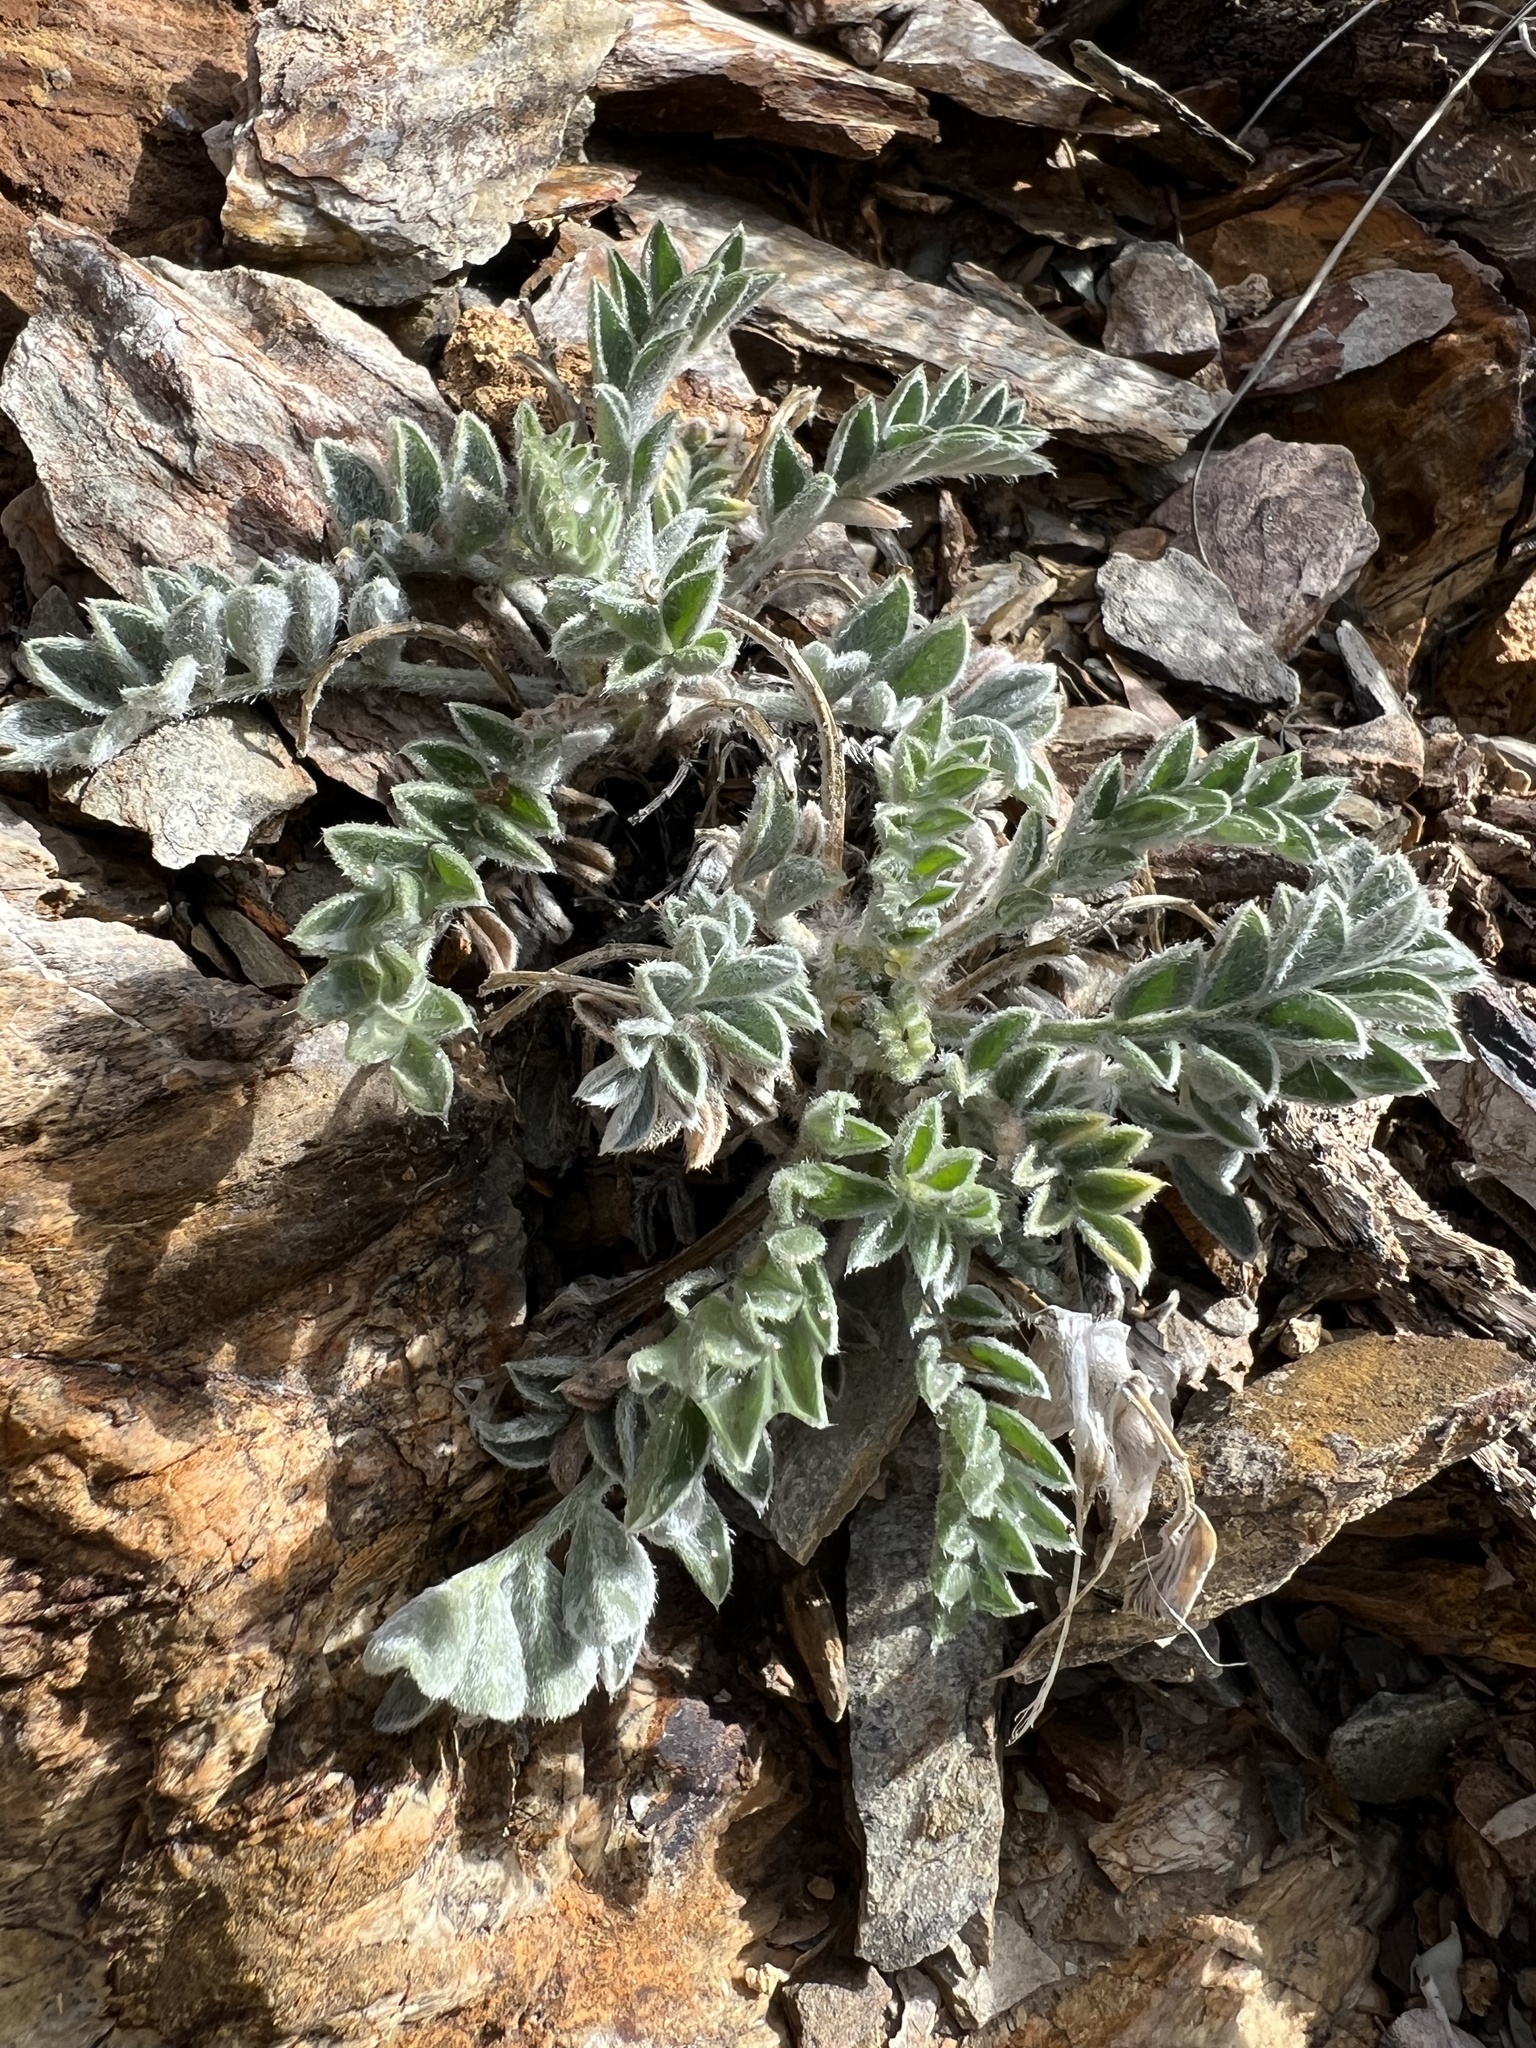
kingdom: Plantae
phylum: Tracheophyta
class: Magnoliopsida
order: Fabales
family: Fabaceae
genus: Astragalus
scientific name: Astragalus coccineus
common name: Scarlet milk-vetch
